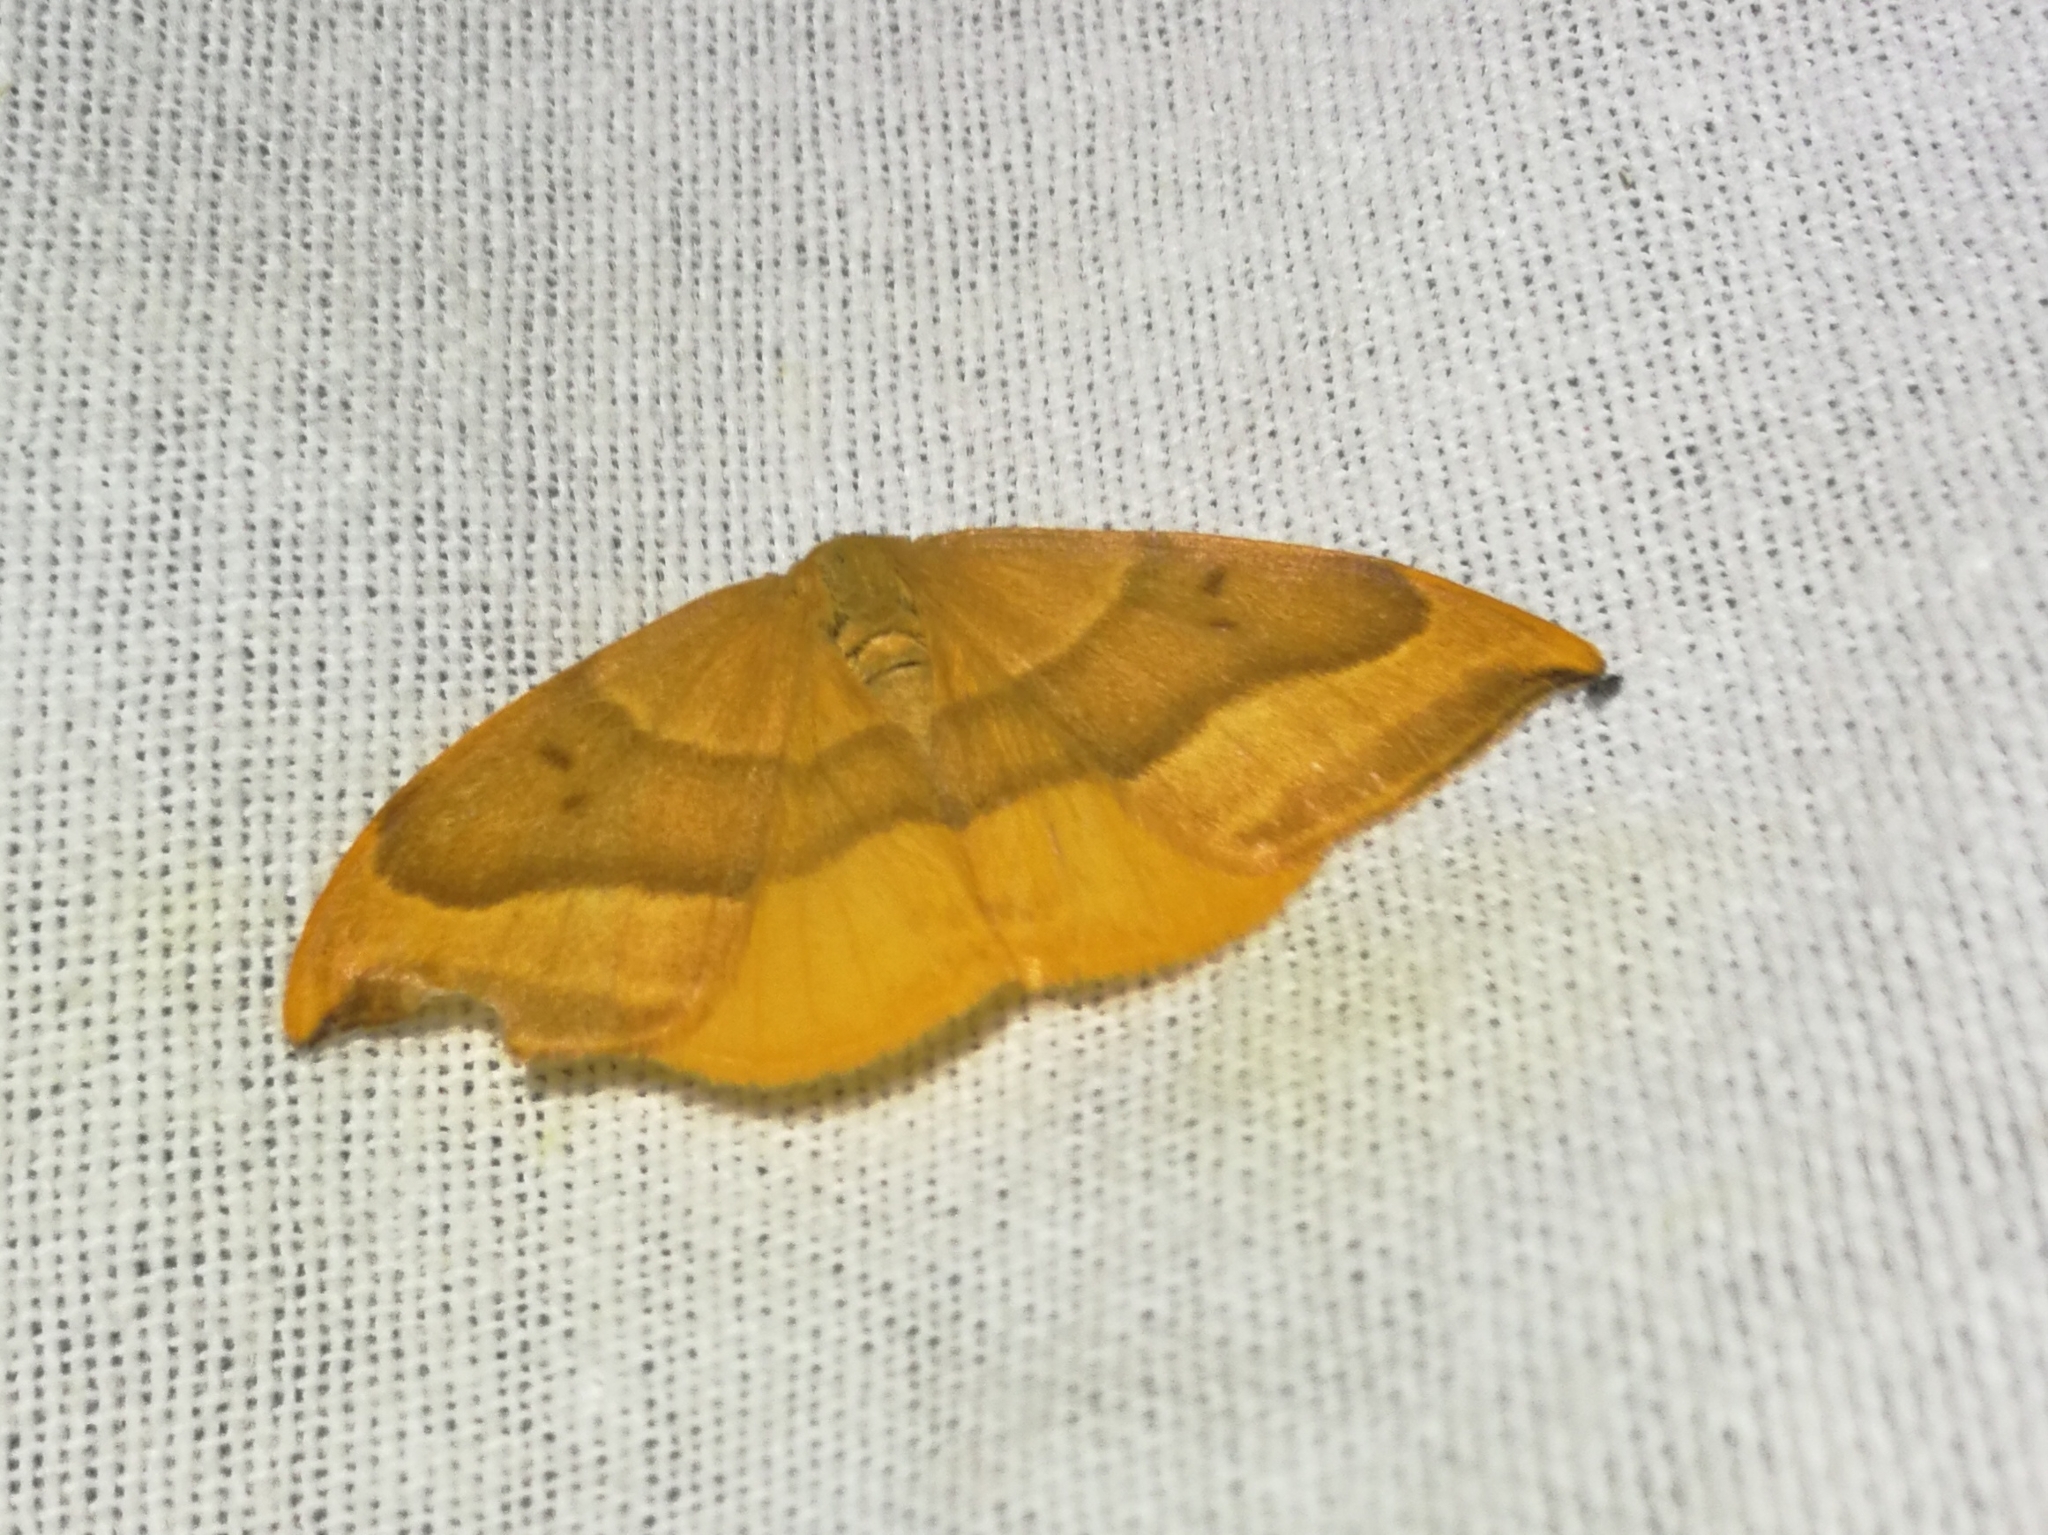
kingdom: Animalia
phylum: Arthropoda
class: Insecta
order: Lepidoptera
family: Drepanidae
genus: Watsonalla
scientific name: Watsonalla cultraria
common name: Barred hook-tip
